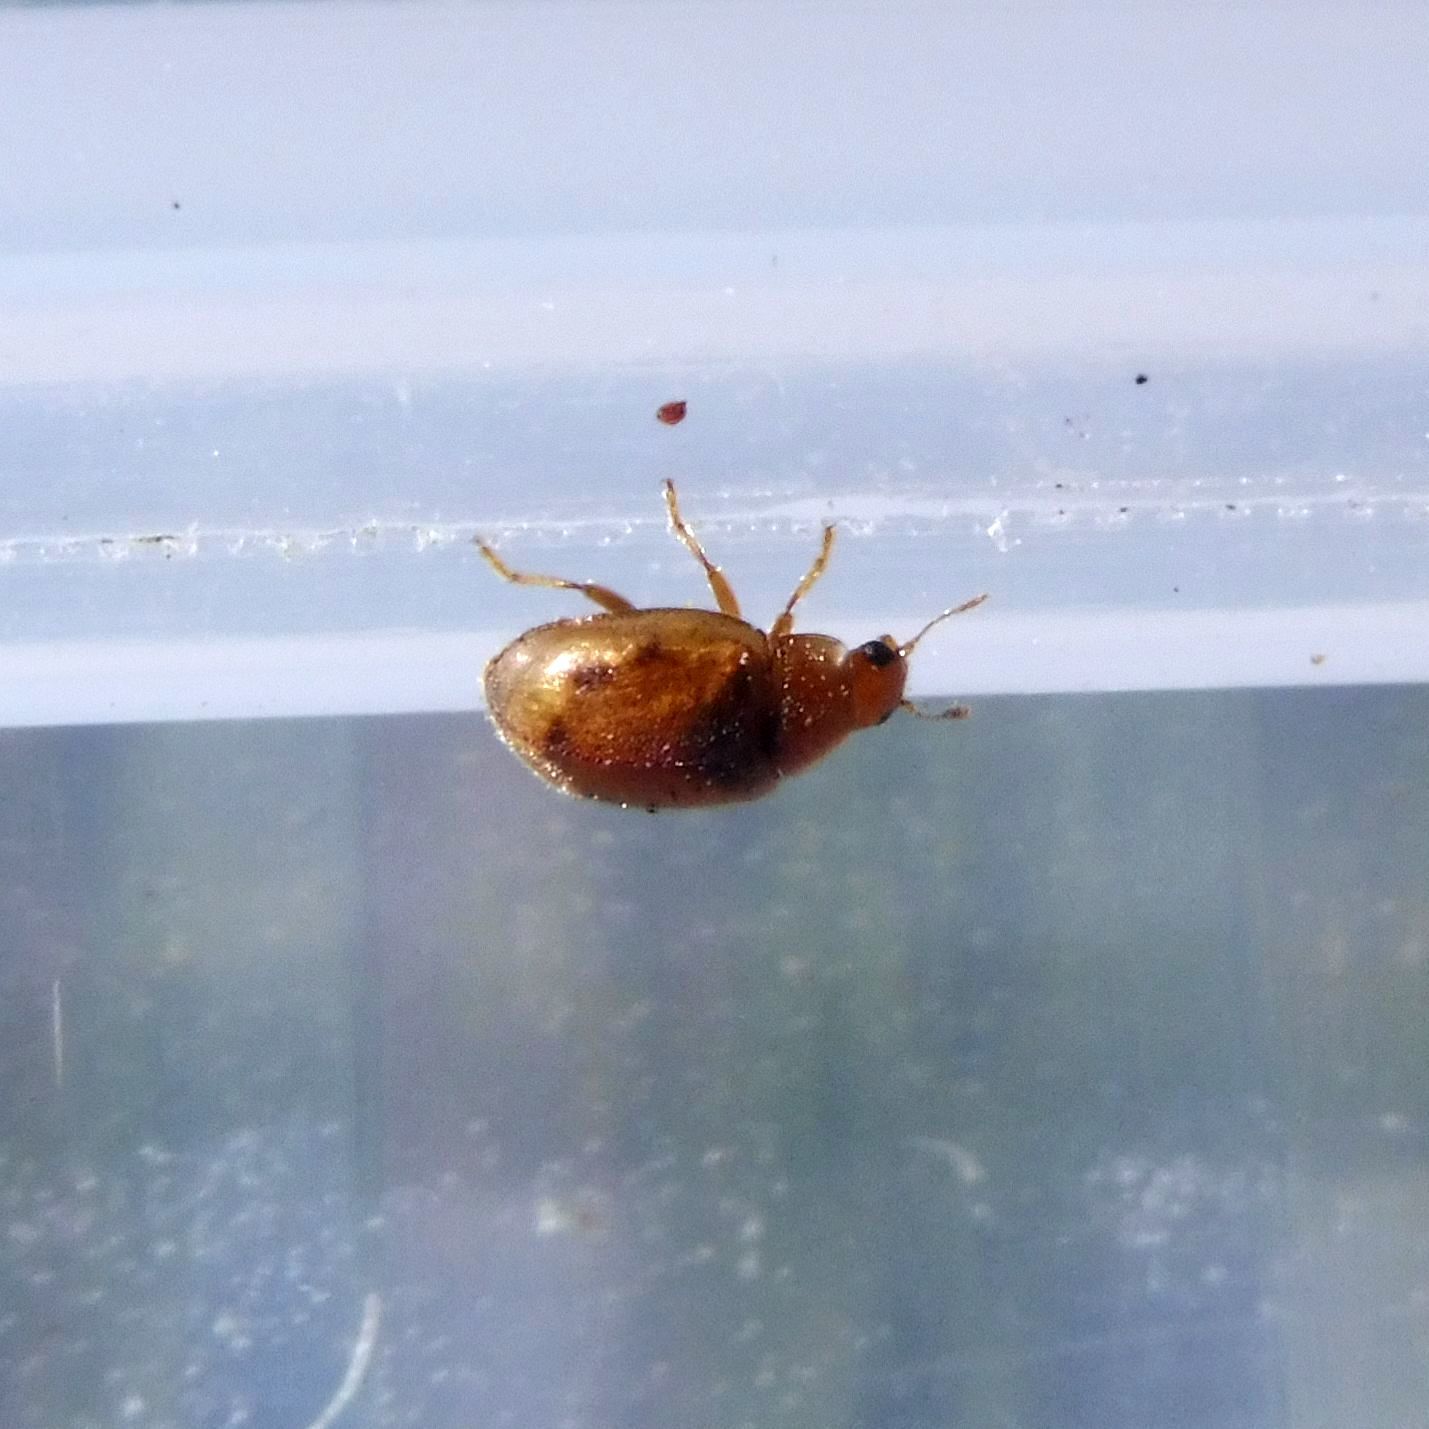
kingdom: Animalia
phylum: Arthropoda
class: Insecta
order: Coleoptera
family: Coccinellidae
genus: Rhyzobius
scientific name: Rhyzobius litura
